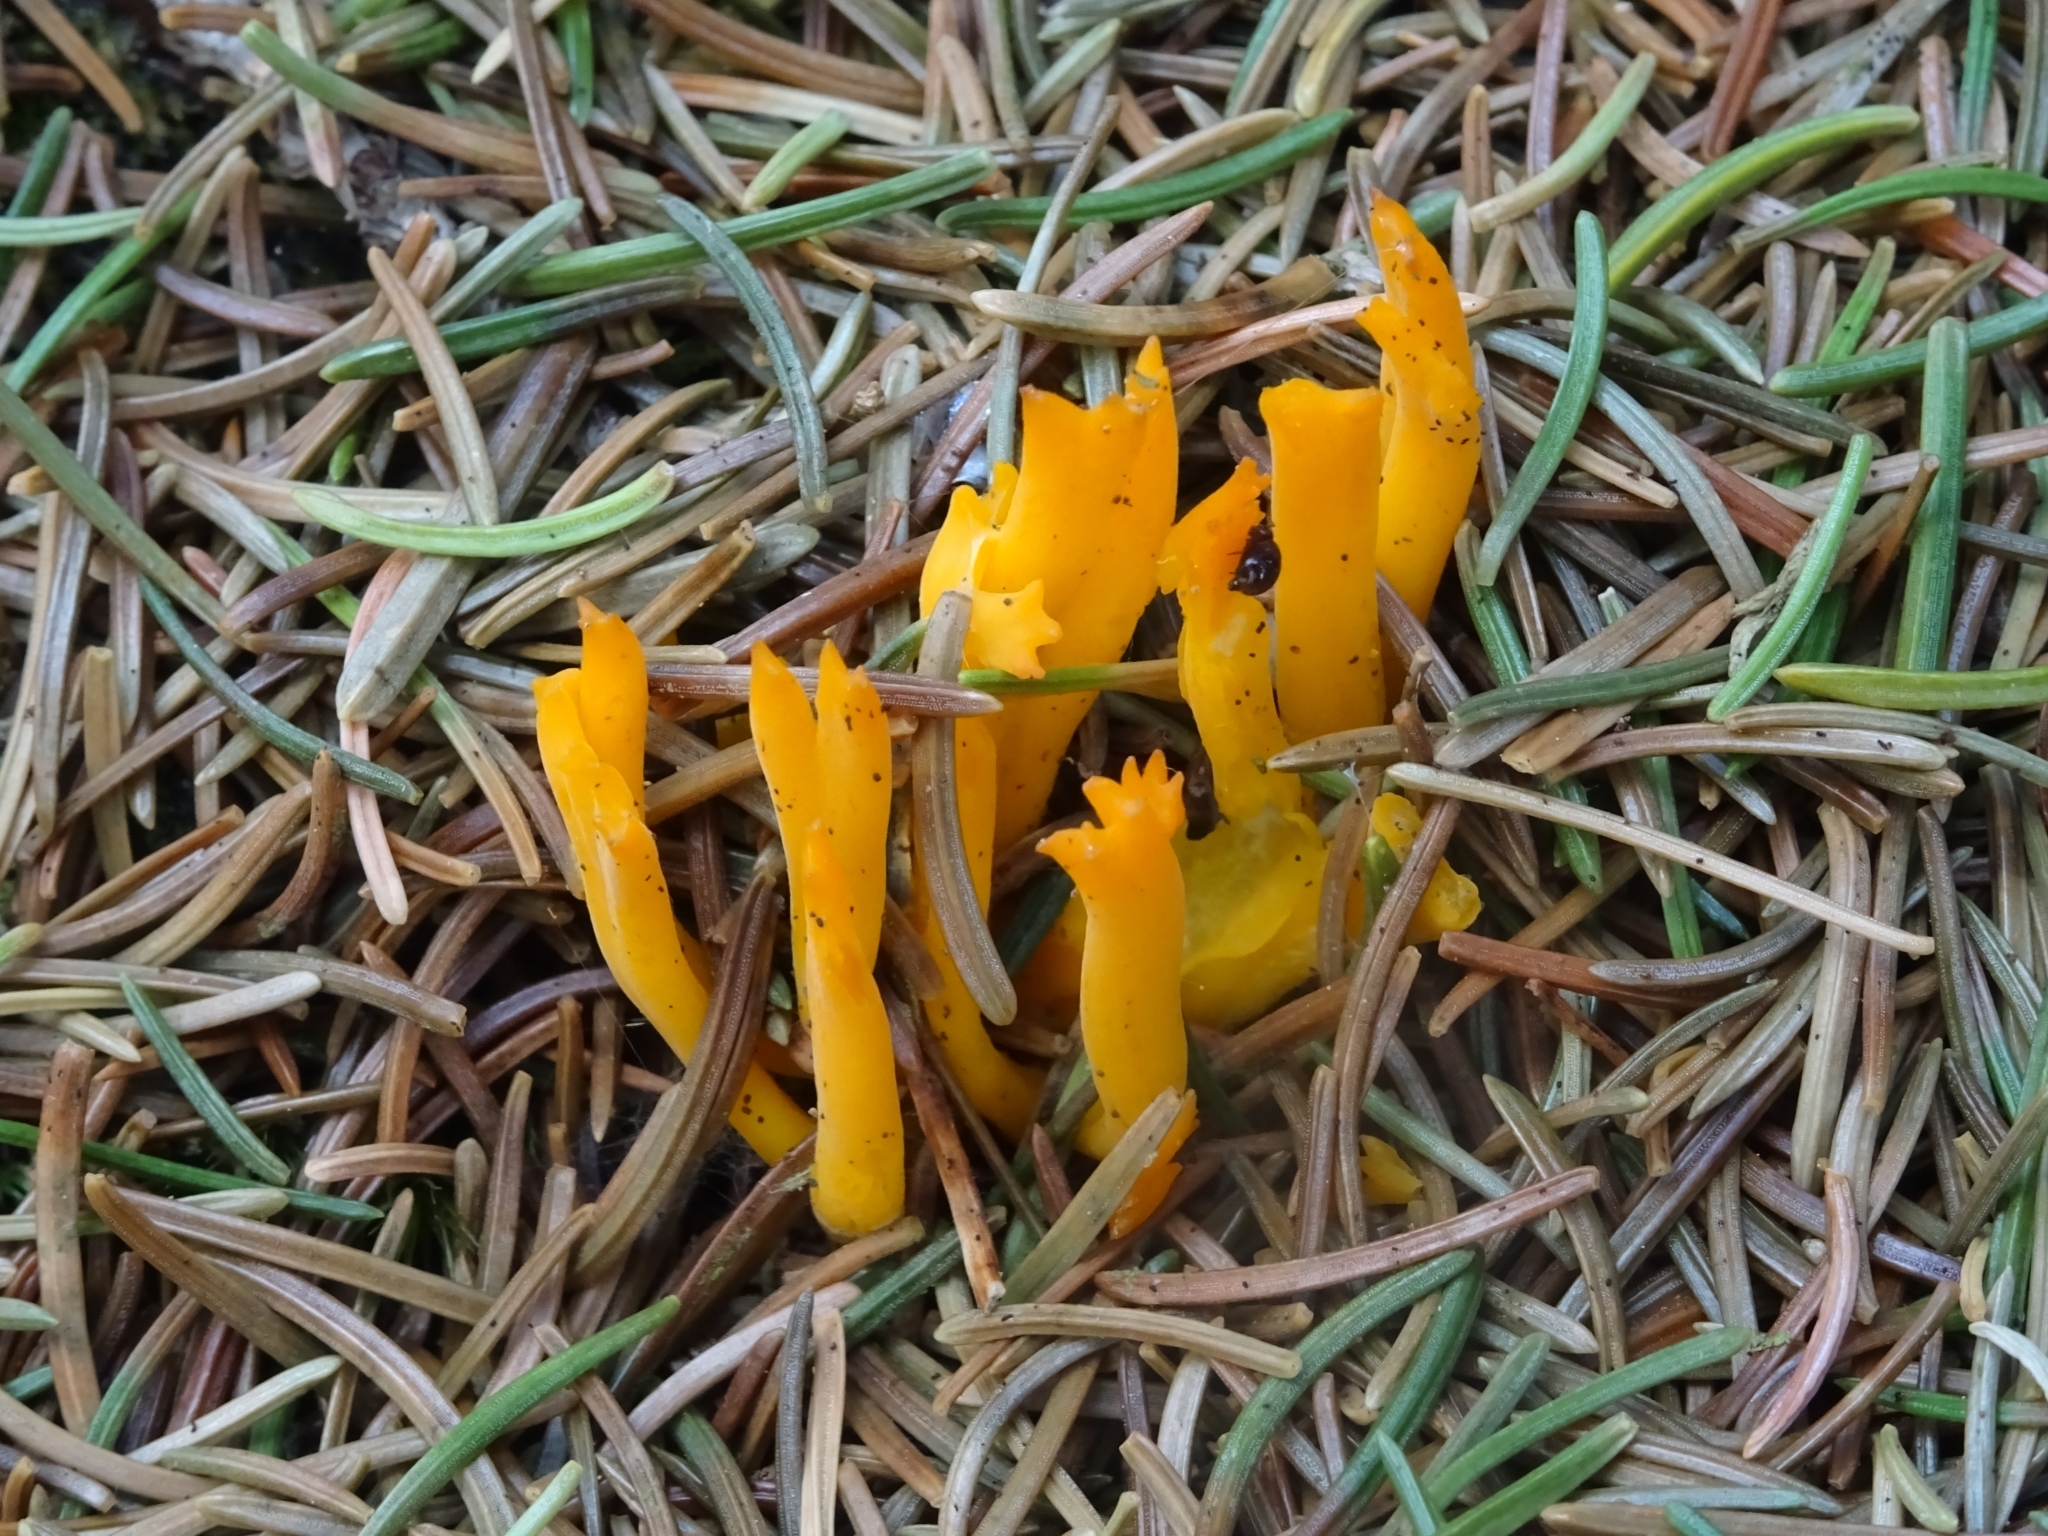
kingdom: Fungi
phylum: Basidiomycota
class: Dacrymycetes
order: Dacrymycetales
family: Dacrymycetaceae
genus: Calocera
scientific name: Calocera viscosa
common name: Yellow stagshorn
